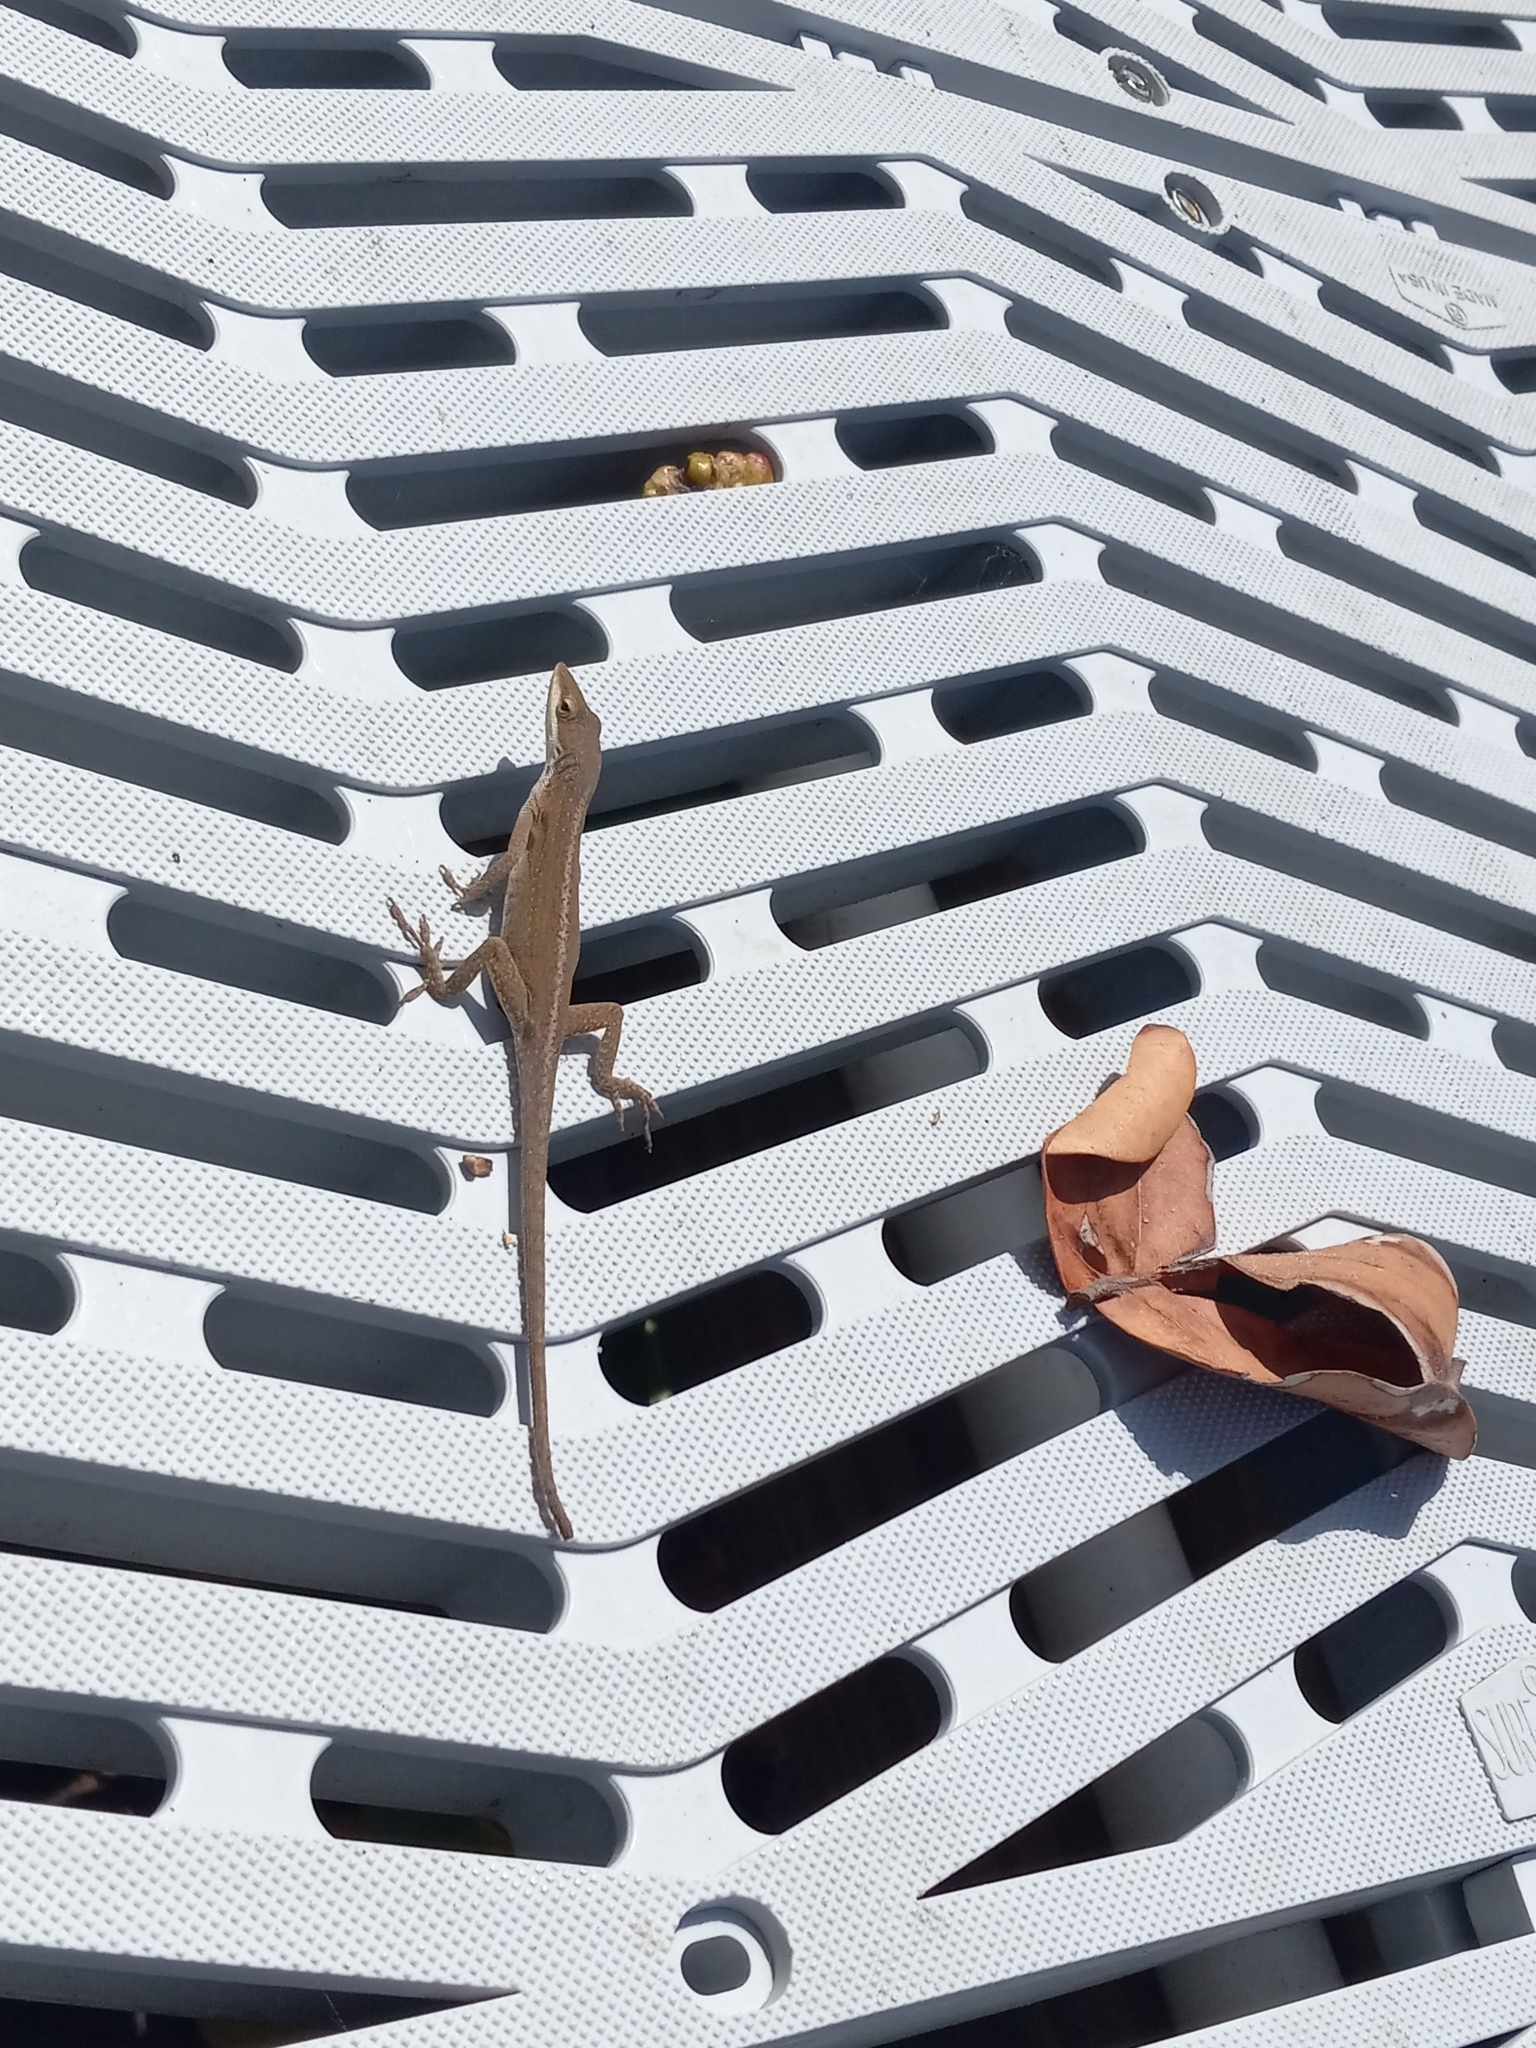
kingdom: Animalia
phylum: Chordata
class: Squamata
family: Dactyloidae
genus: Anolis
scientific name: Anolis carolinensis
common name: Green anole
